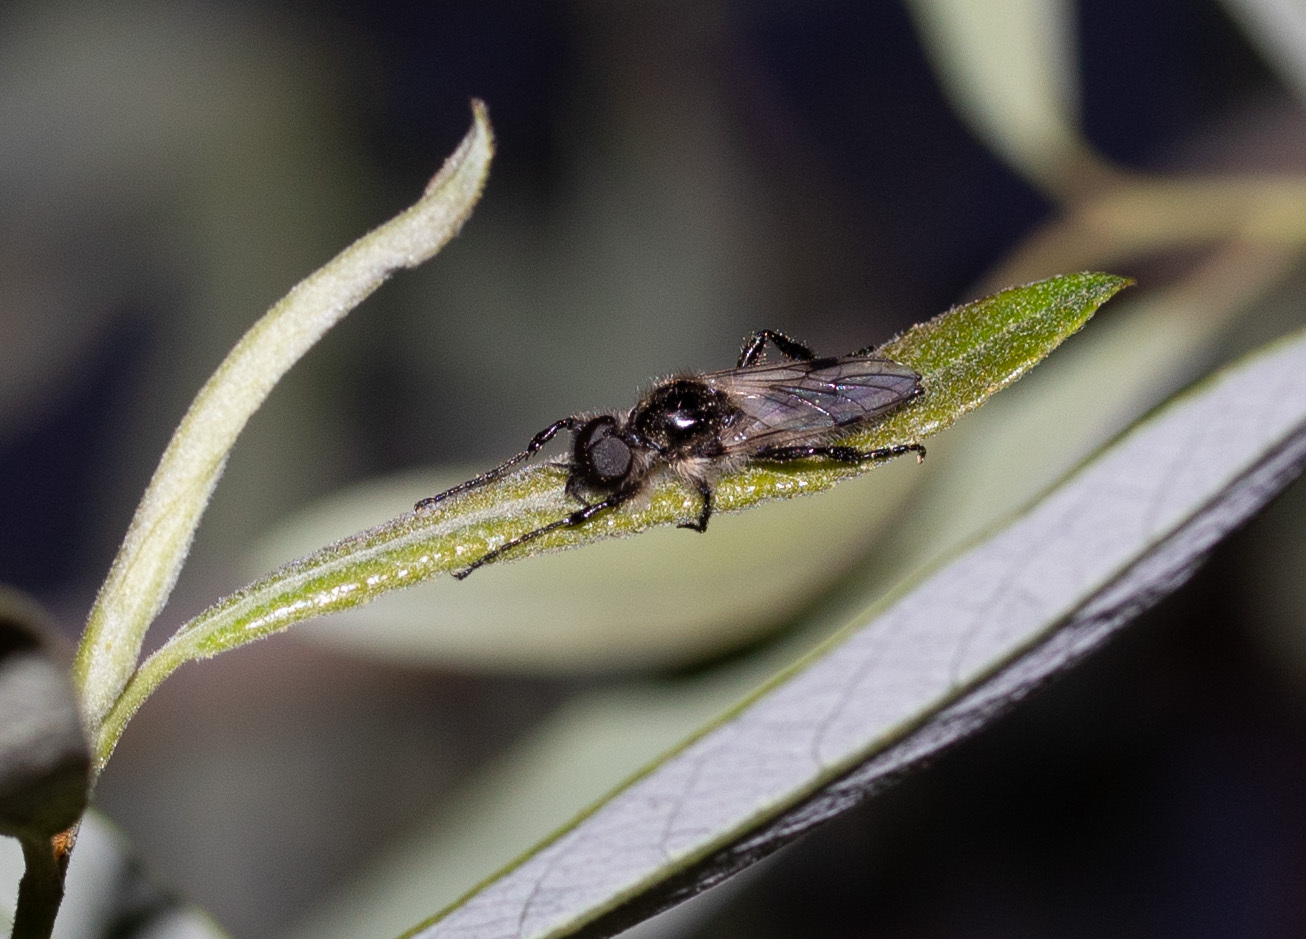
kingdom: Animalia
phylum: Arthropoda
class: Insecta
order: Diptera
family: Bibionidae
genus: Bibio
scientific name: Bibio albipennis
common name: White-winged march fly
